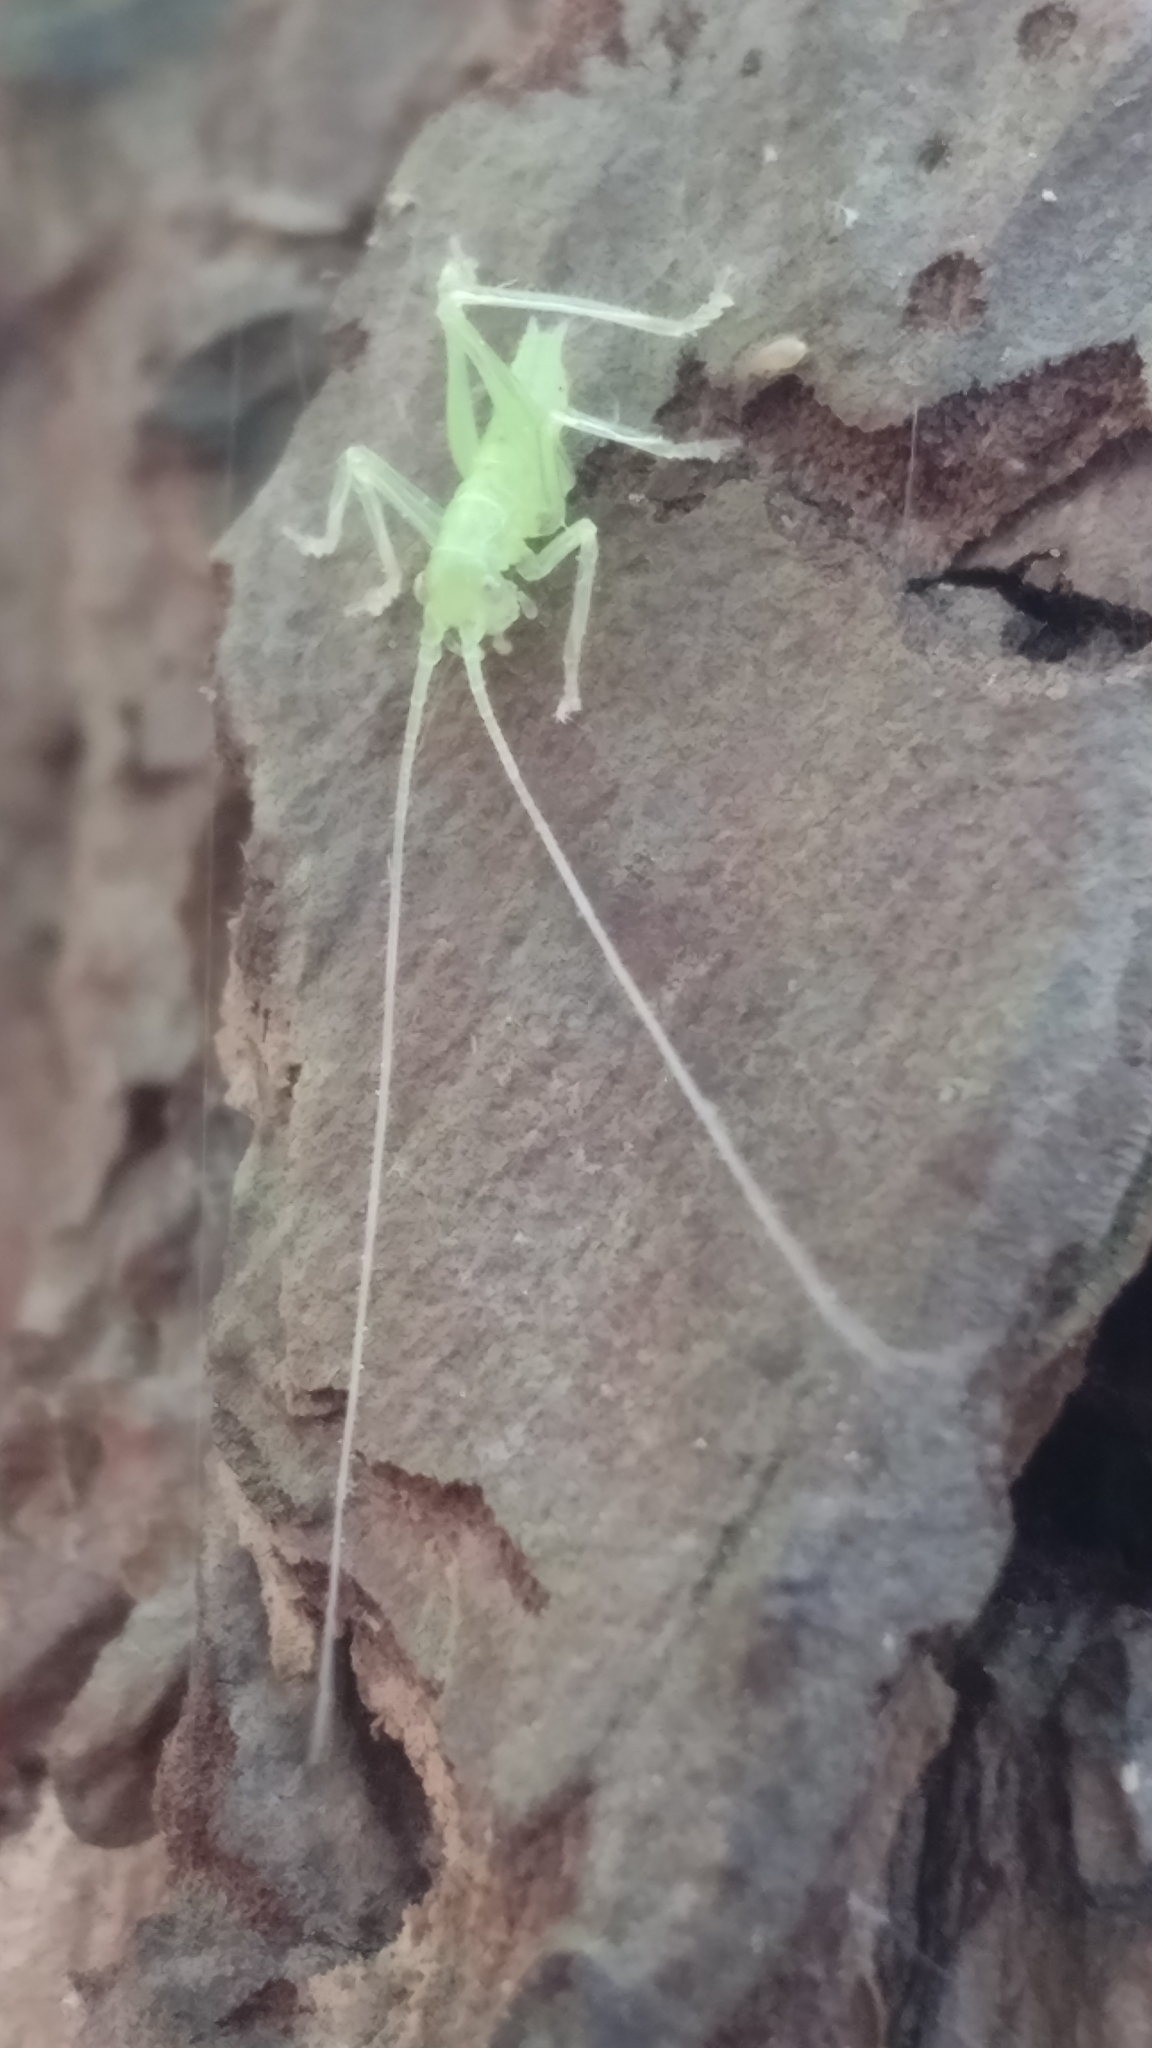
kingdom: Animalia
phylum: Arthropoda
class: Insecta
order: Orthoptera
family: Tettigoniidae
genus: Meconema
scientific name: Meconema
